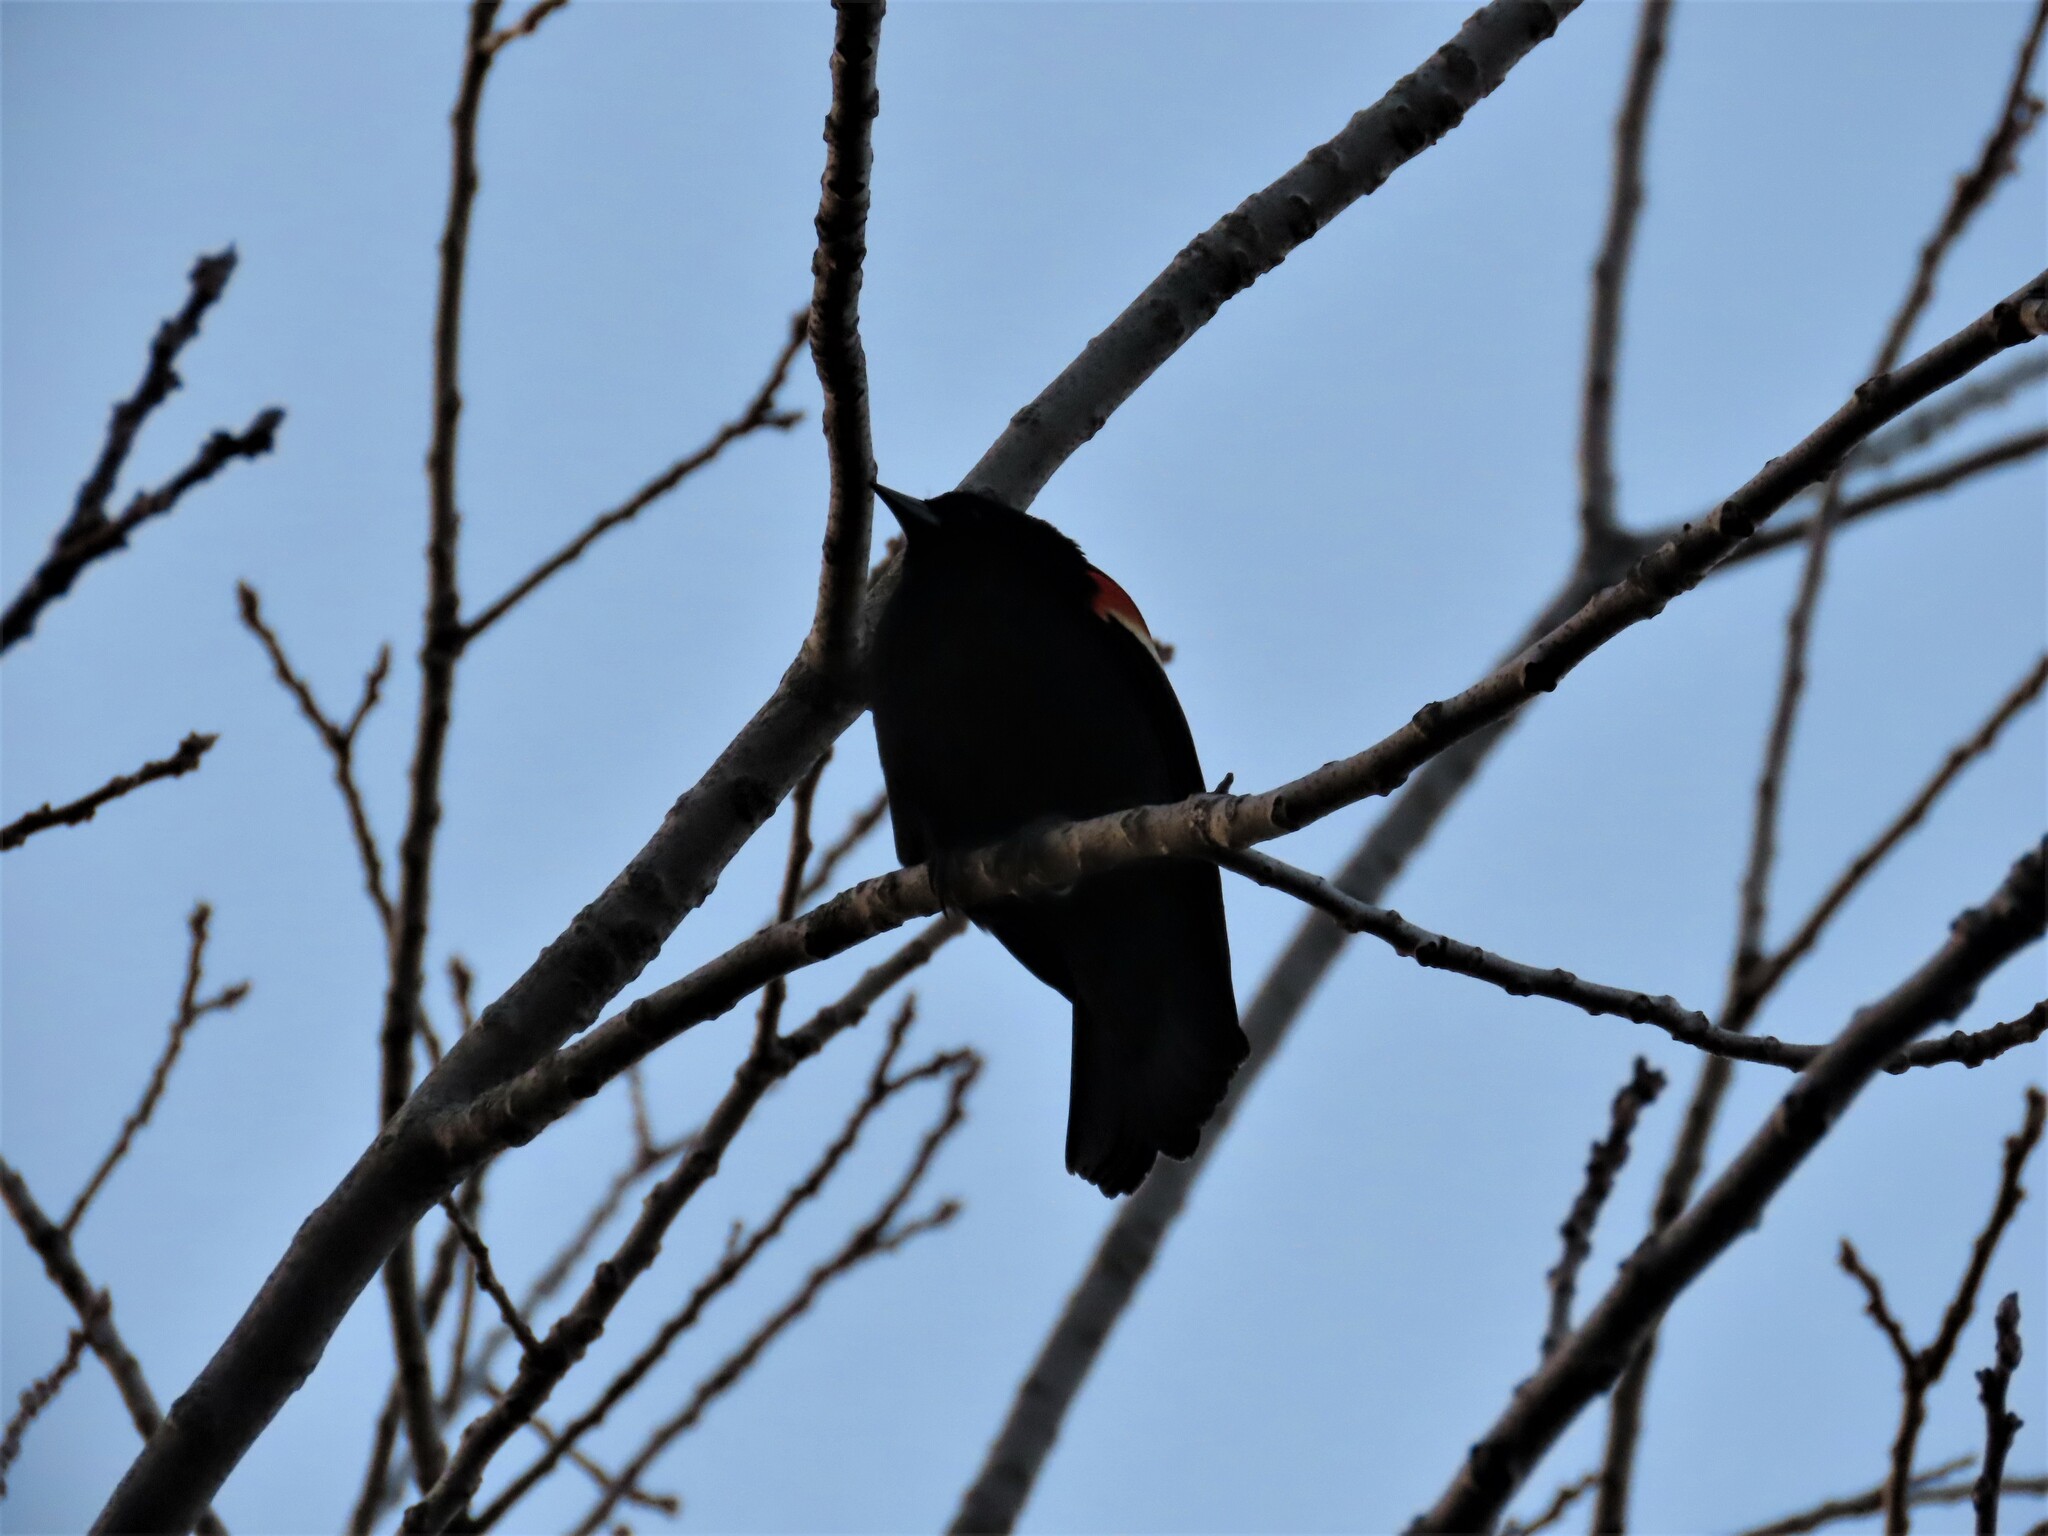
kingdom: Animalia
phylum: Chordata
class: Aves
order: Passeriformes
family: Icteridae
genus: Agelaius
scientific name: Agelaius phoeniceus
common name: Red-winged blackbird
